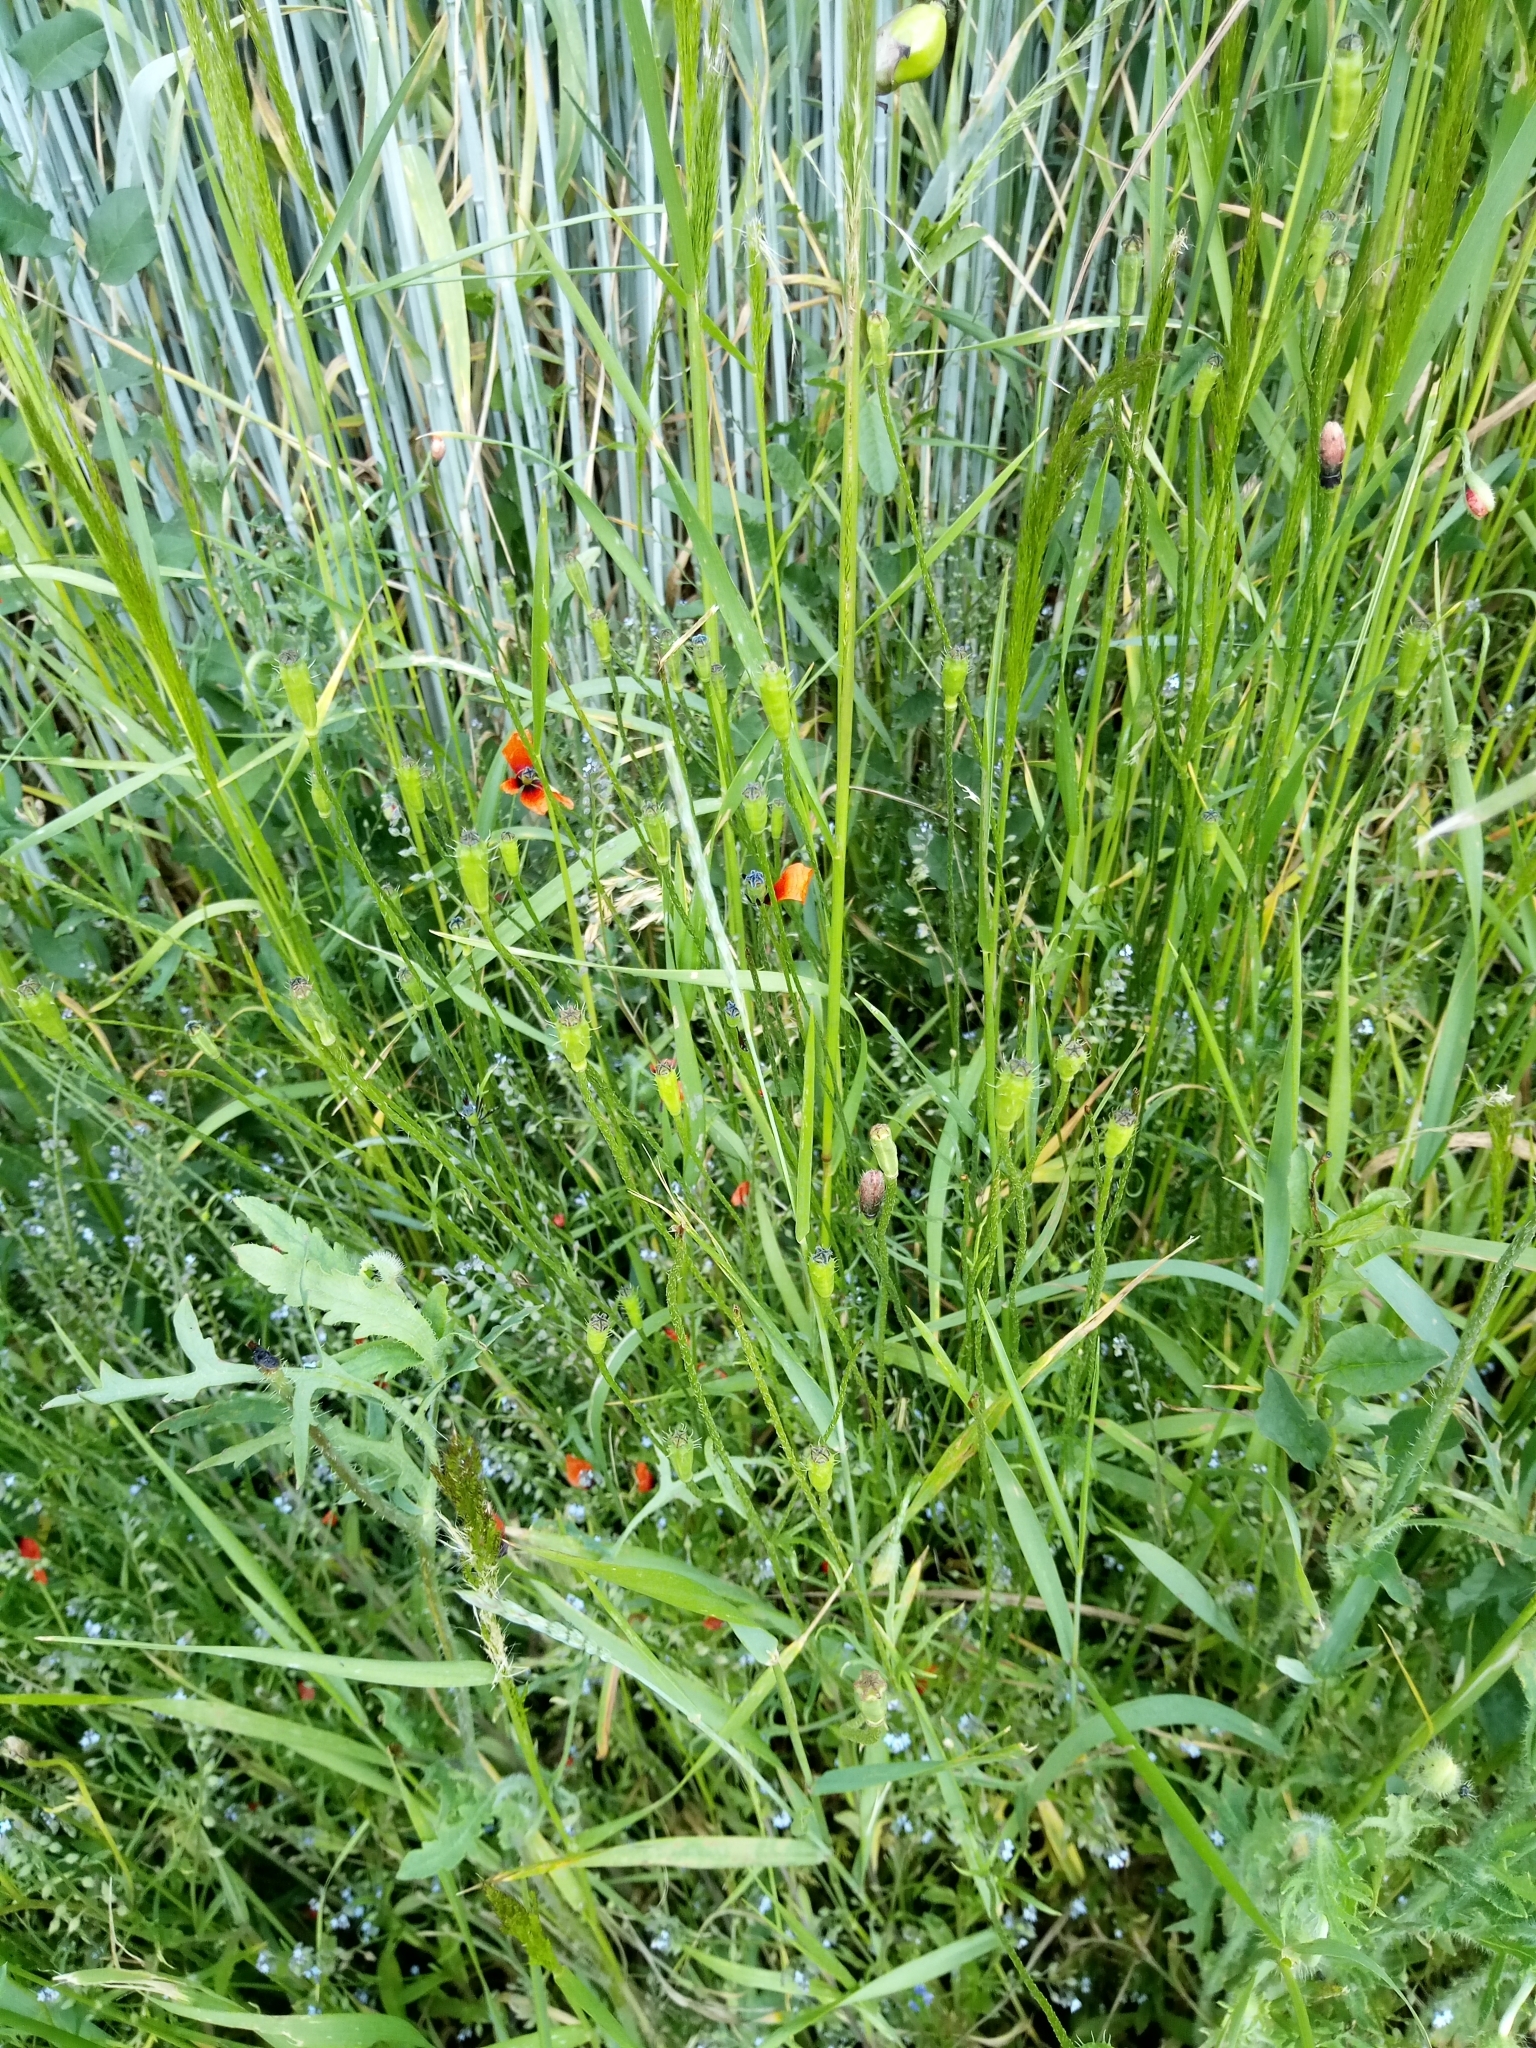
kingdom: Plantae
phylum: Tracheophyta
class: Magnoliopsida
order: Ranunculales
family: Papaveraceae
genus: Roemeria
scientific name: Roemeria argemone
